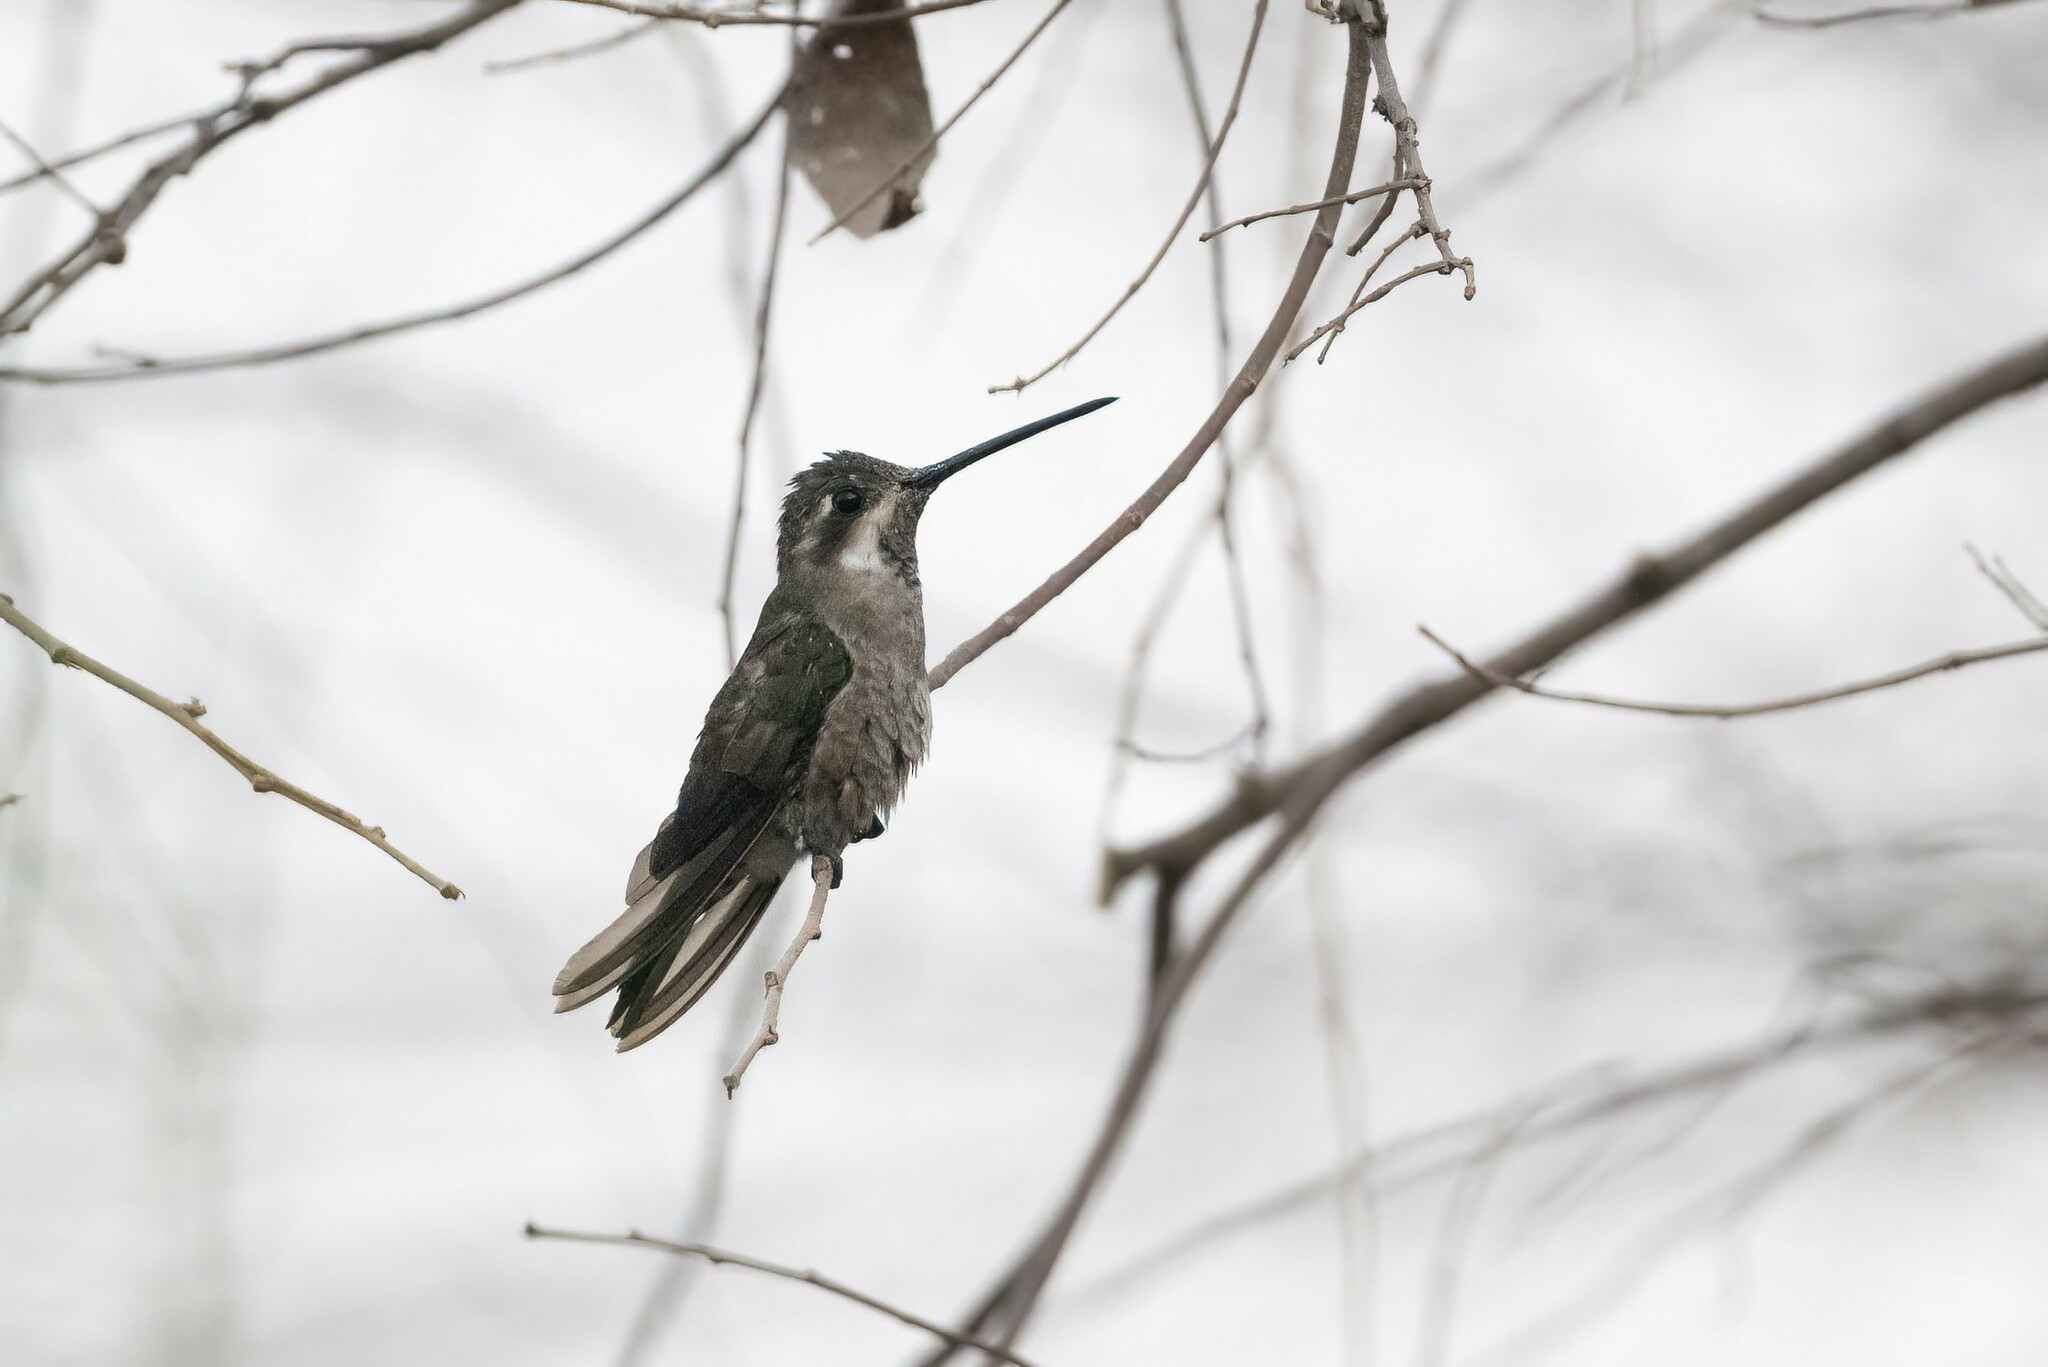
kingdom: Animalia
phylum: Chordata
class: Aves
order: Apodiformes
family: Trochilidae
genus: Heliomaster
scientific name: Heliomaster constantii
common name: Plain-capped starthroat
